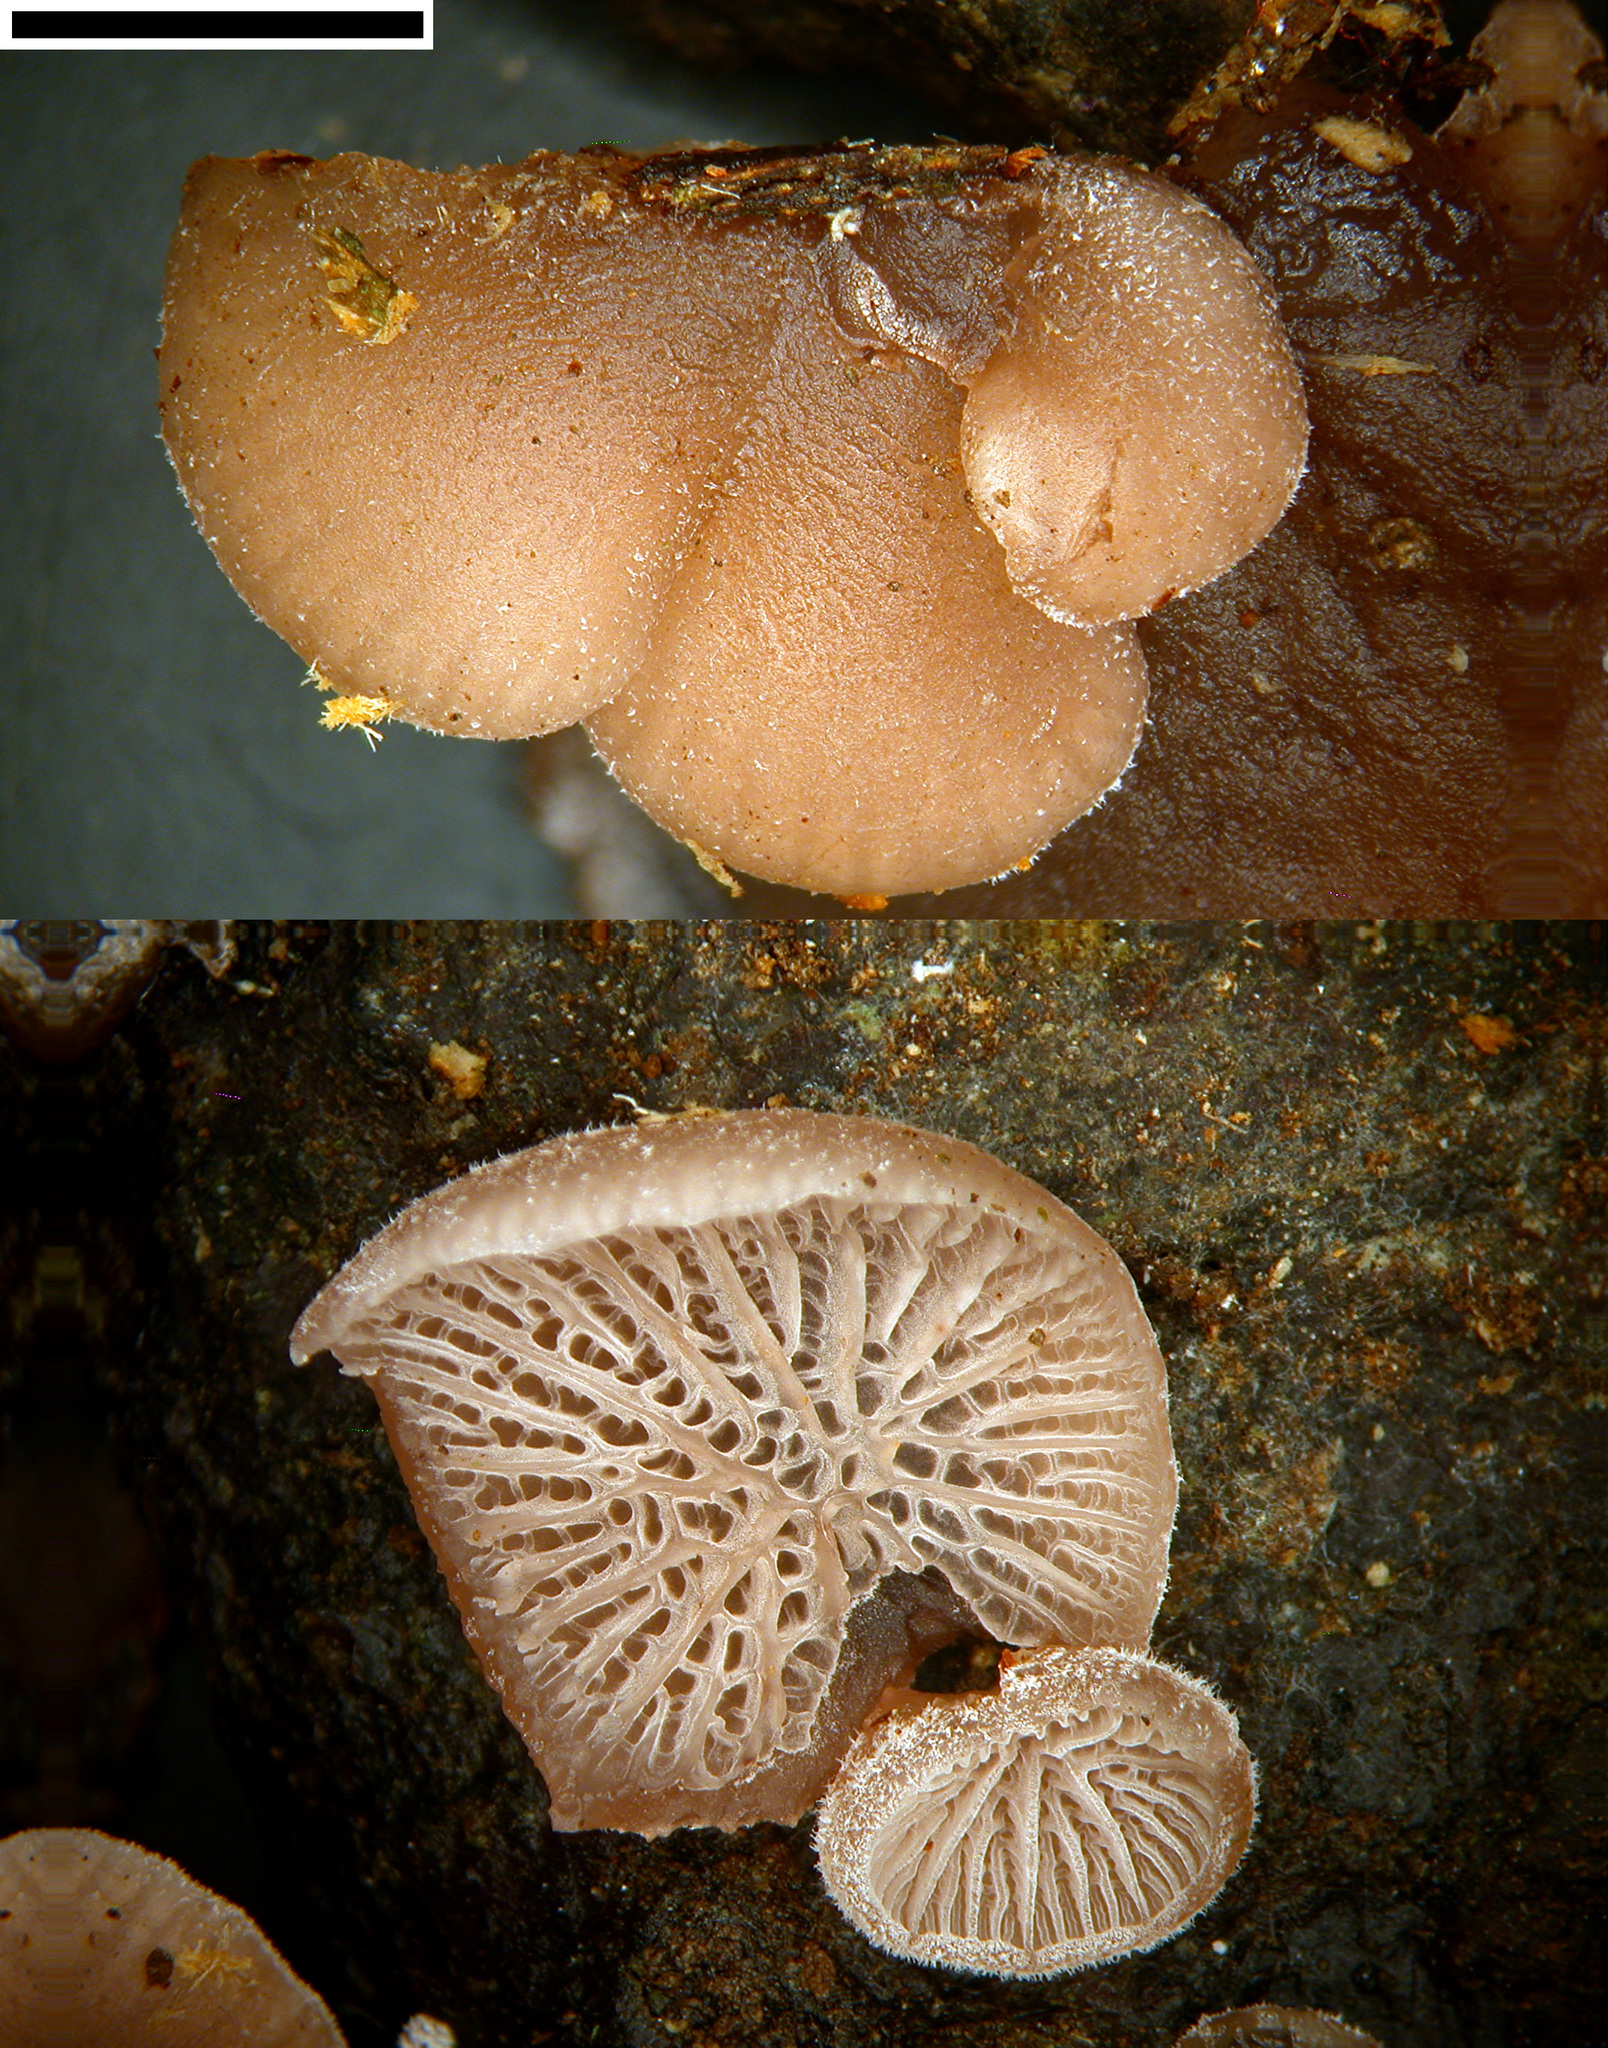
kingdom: Fungi
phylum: Basidiomycota
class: Agaricomycetes
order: Agaricales
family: Pleurotaceae
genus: Resupinatus
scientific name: Resupinatus vinosolividus
